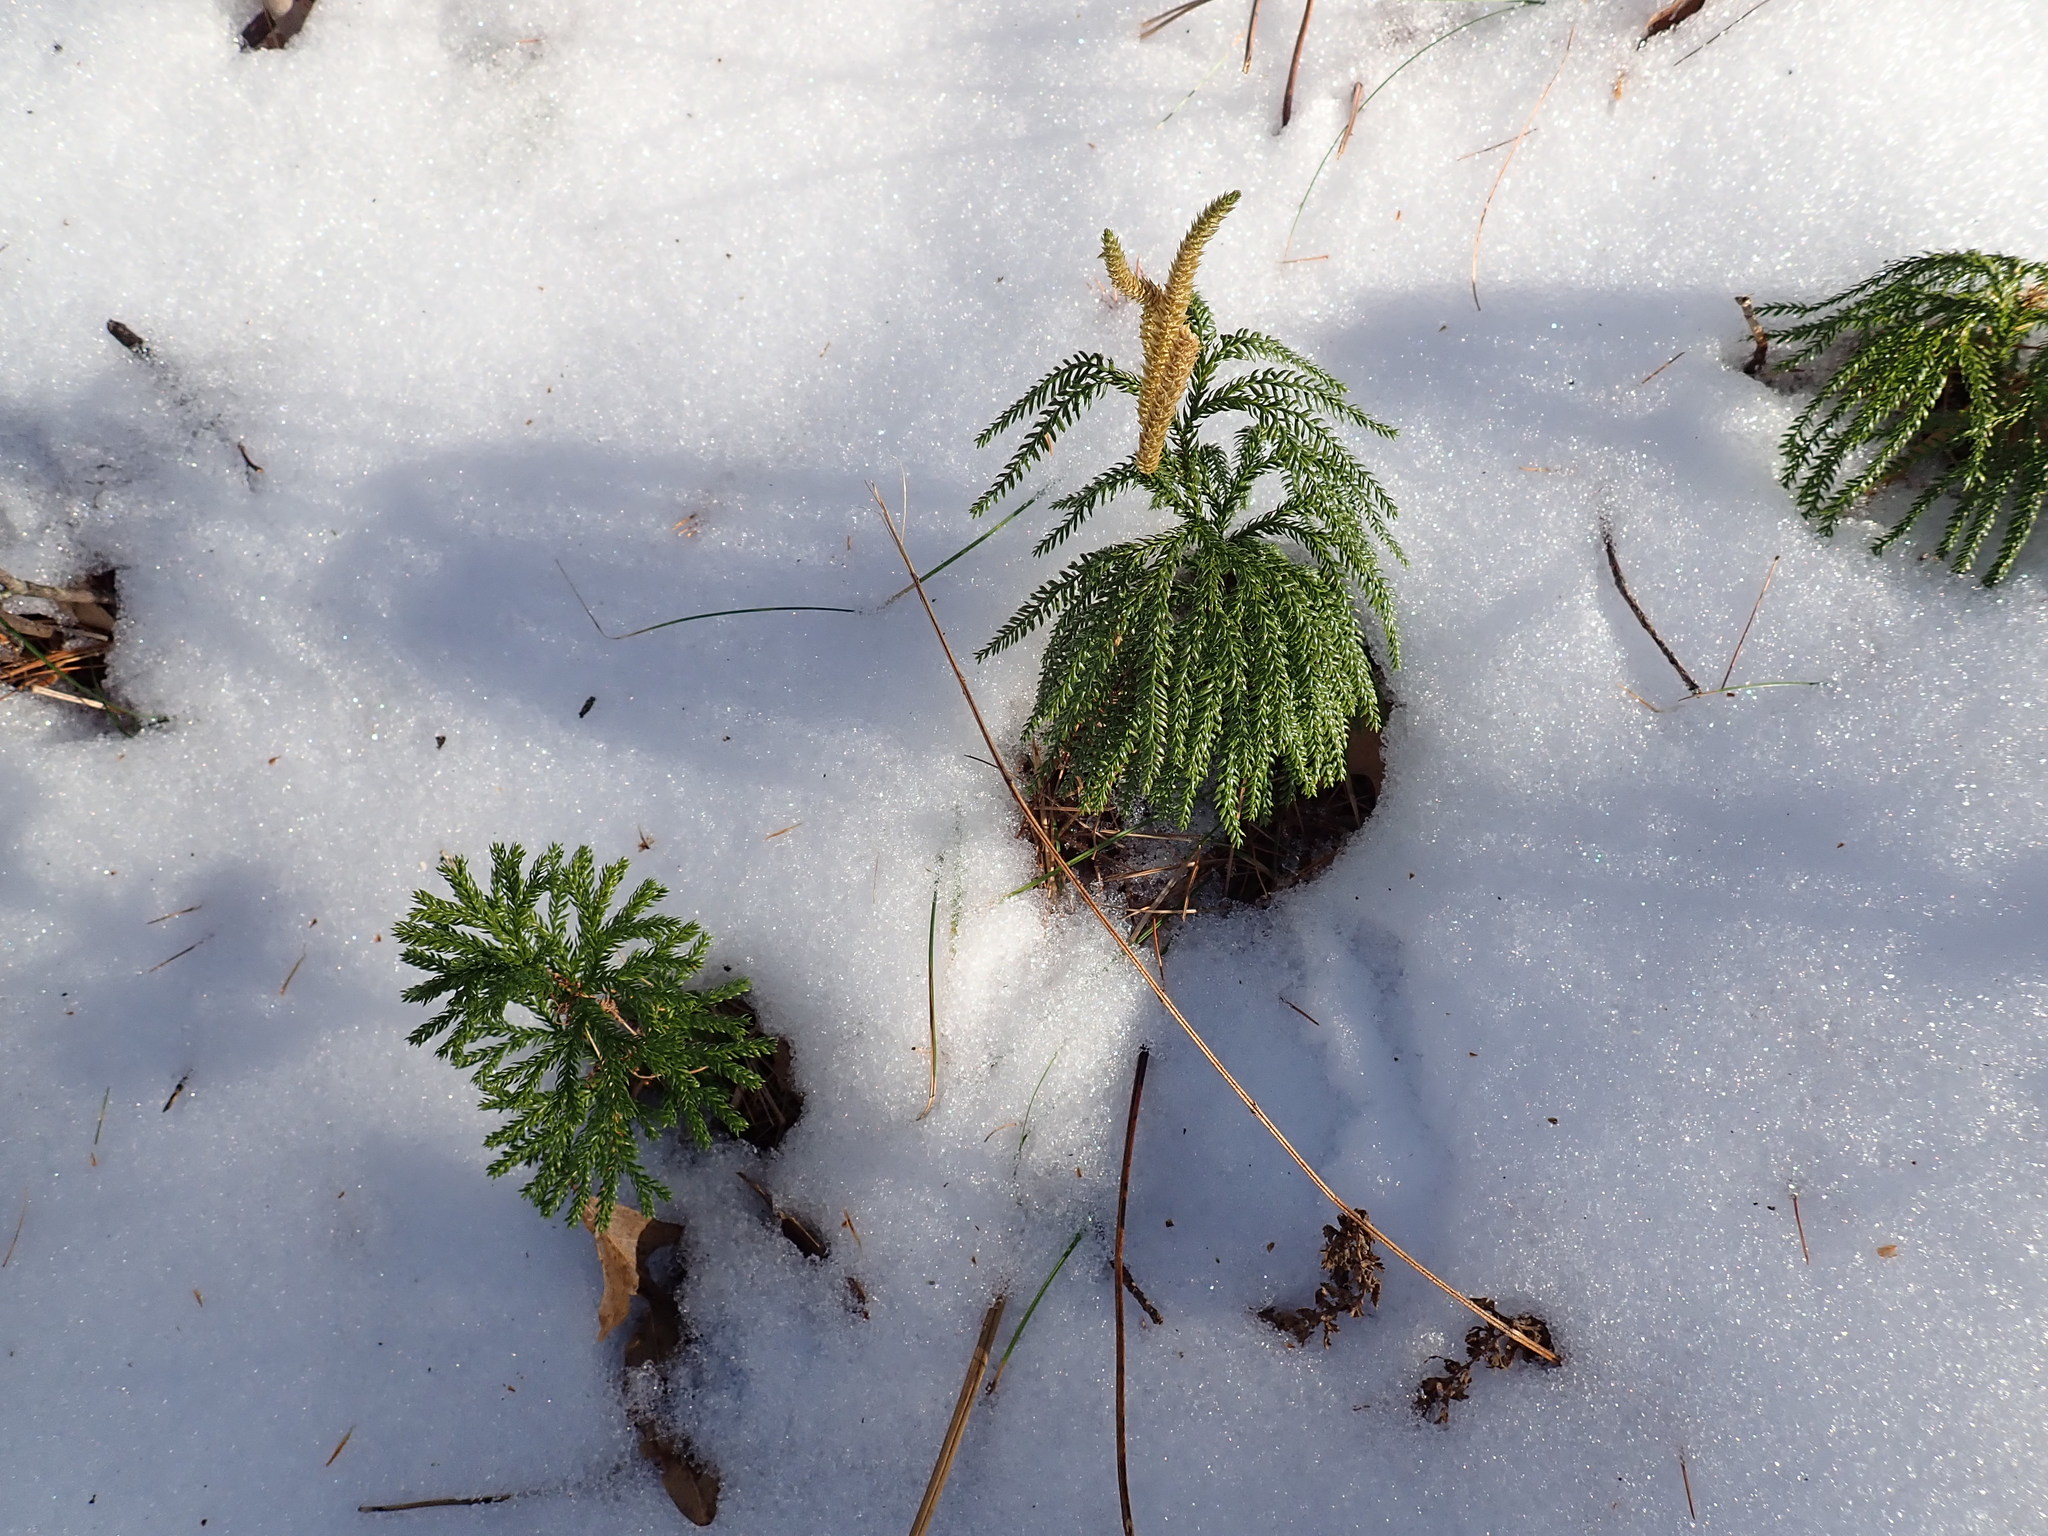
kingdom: Plantae
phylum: Tracheophyta
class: Lycopodiopsida
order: Lycopodiales
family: Lycopodiaceae
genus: Dendrolycopodium
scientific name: Dendrolycopodium obscurum
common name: Common ground-pine
